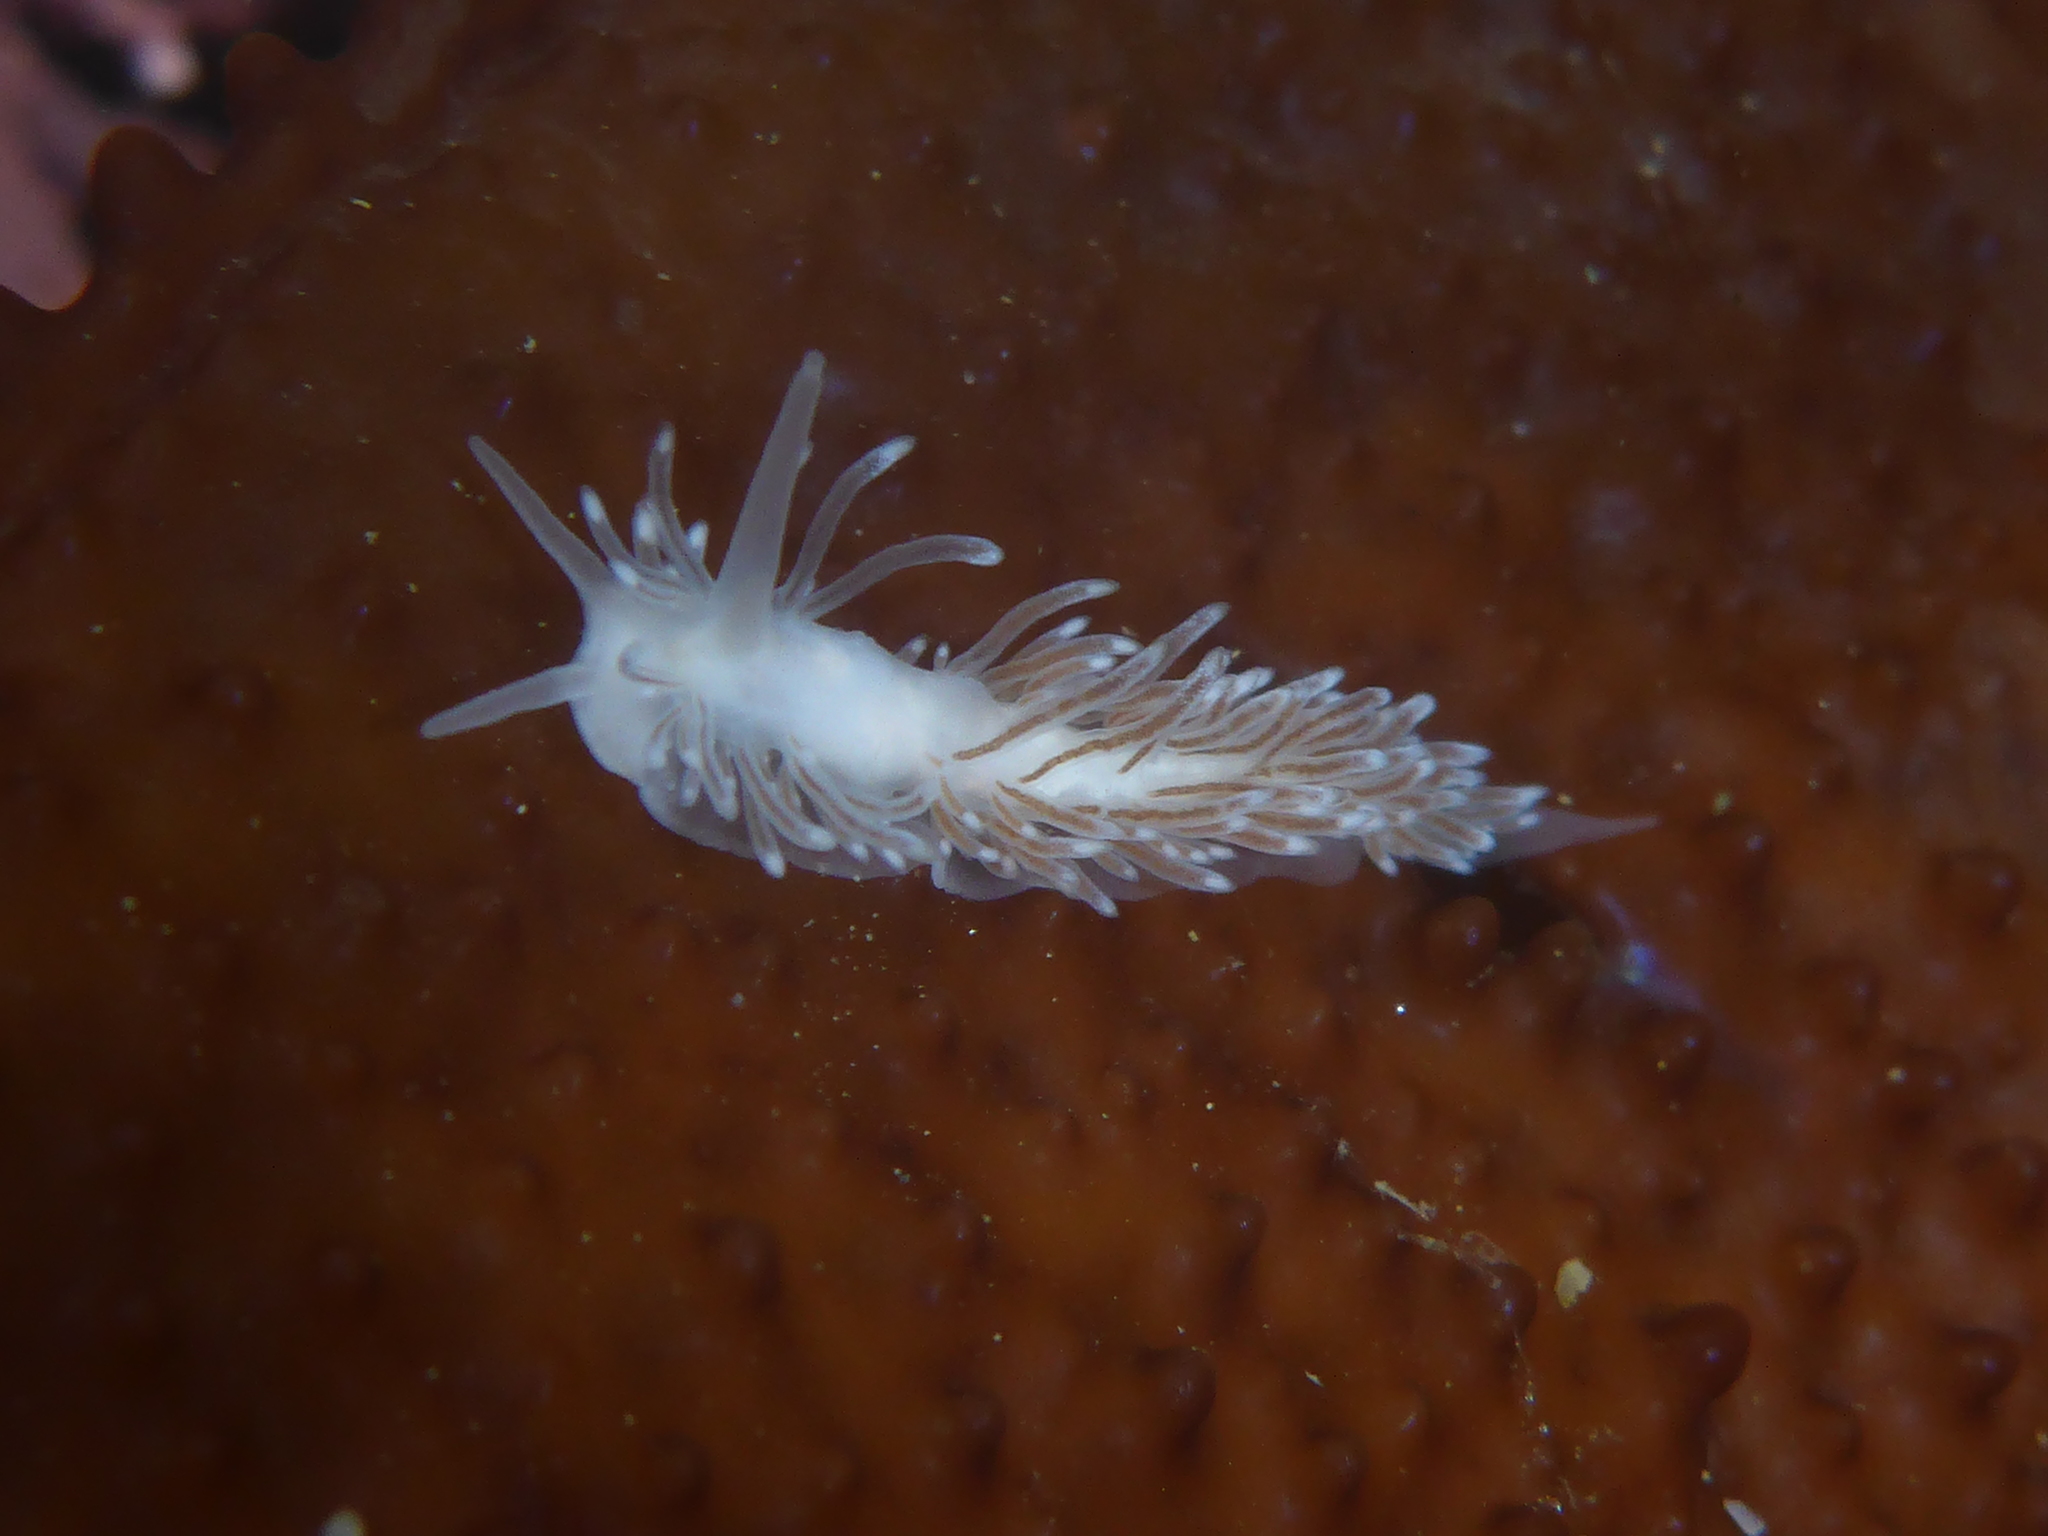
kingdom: Animalia
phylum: Mollusca
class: Gastropoda
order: Nudibranchia
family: Cuthonidae
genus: Cuthona
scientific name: Cuthona divae
